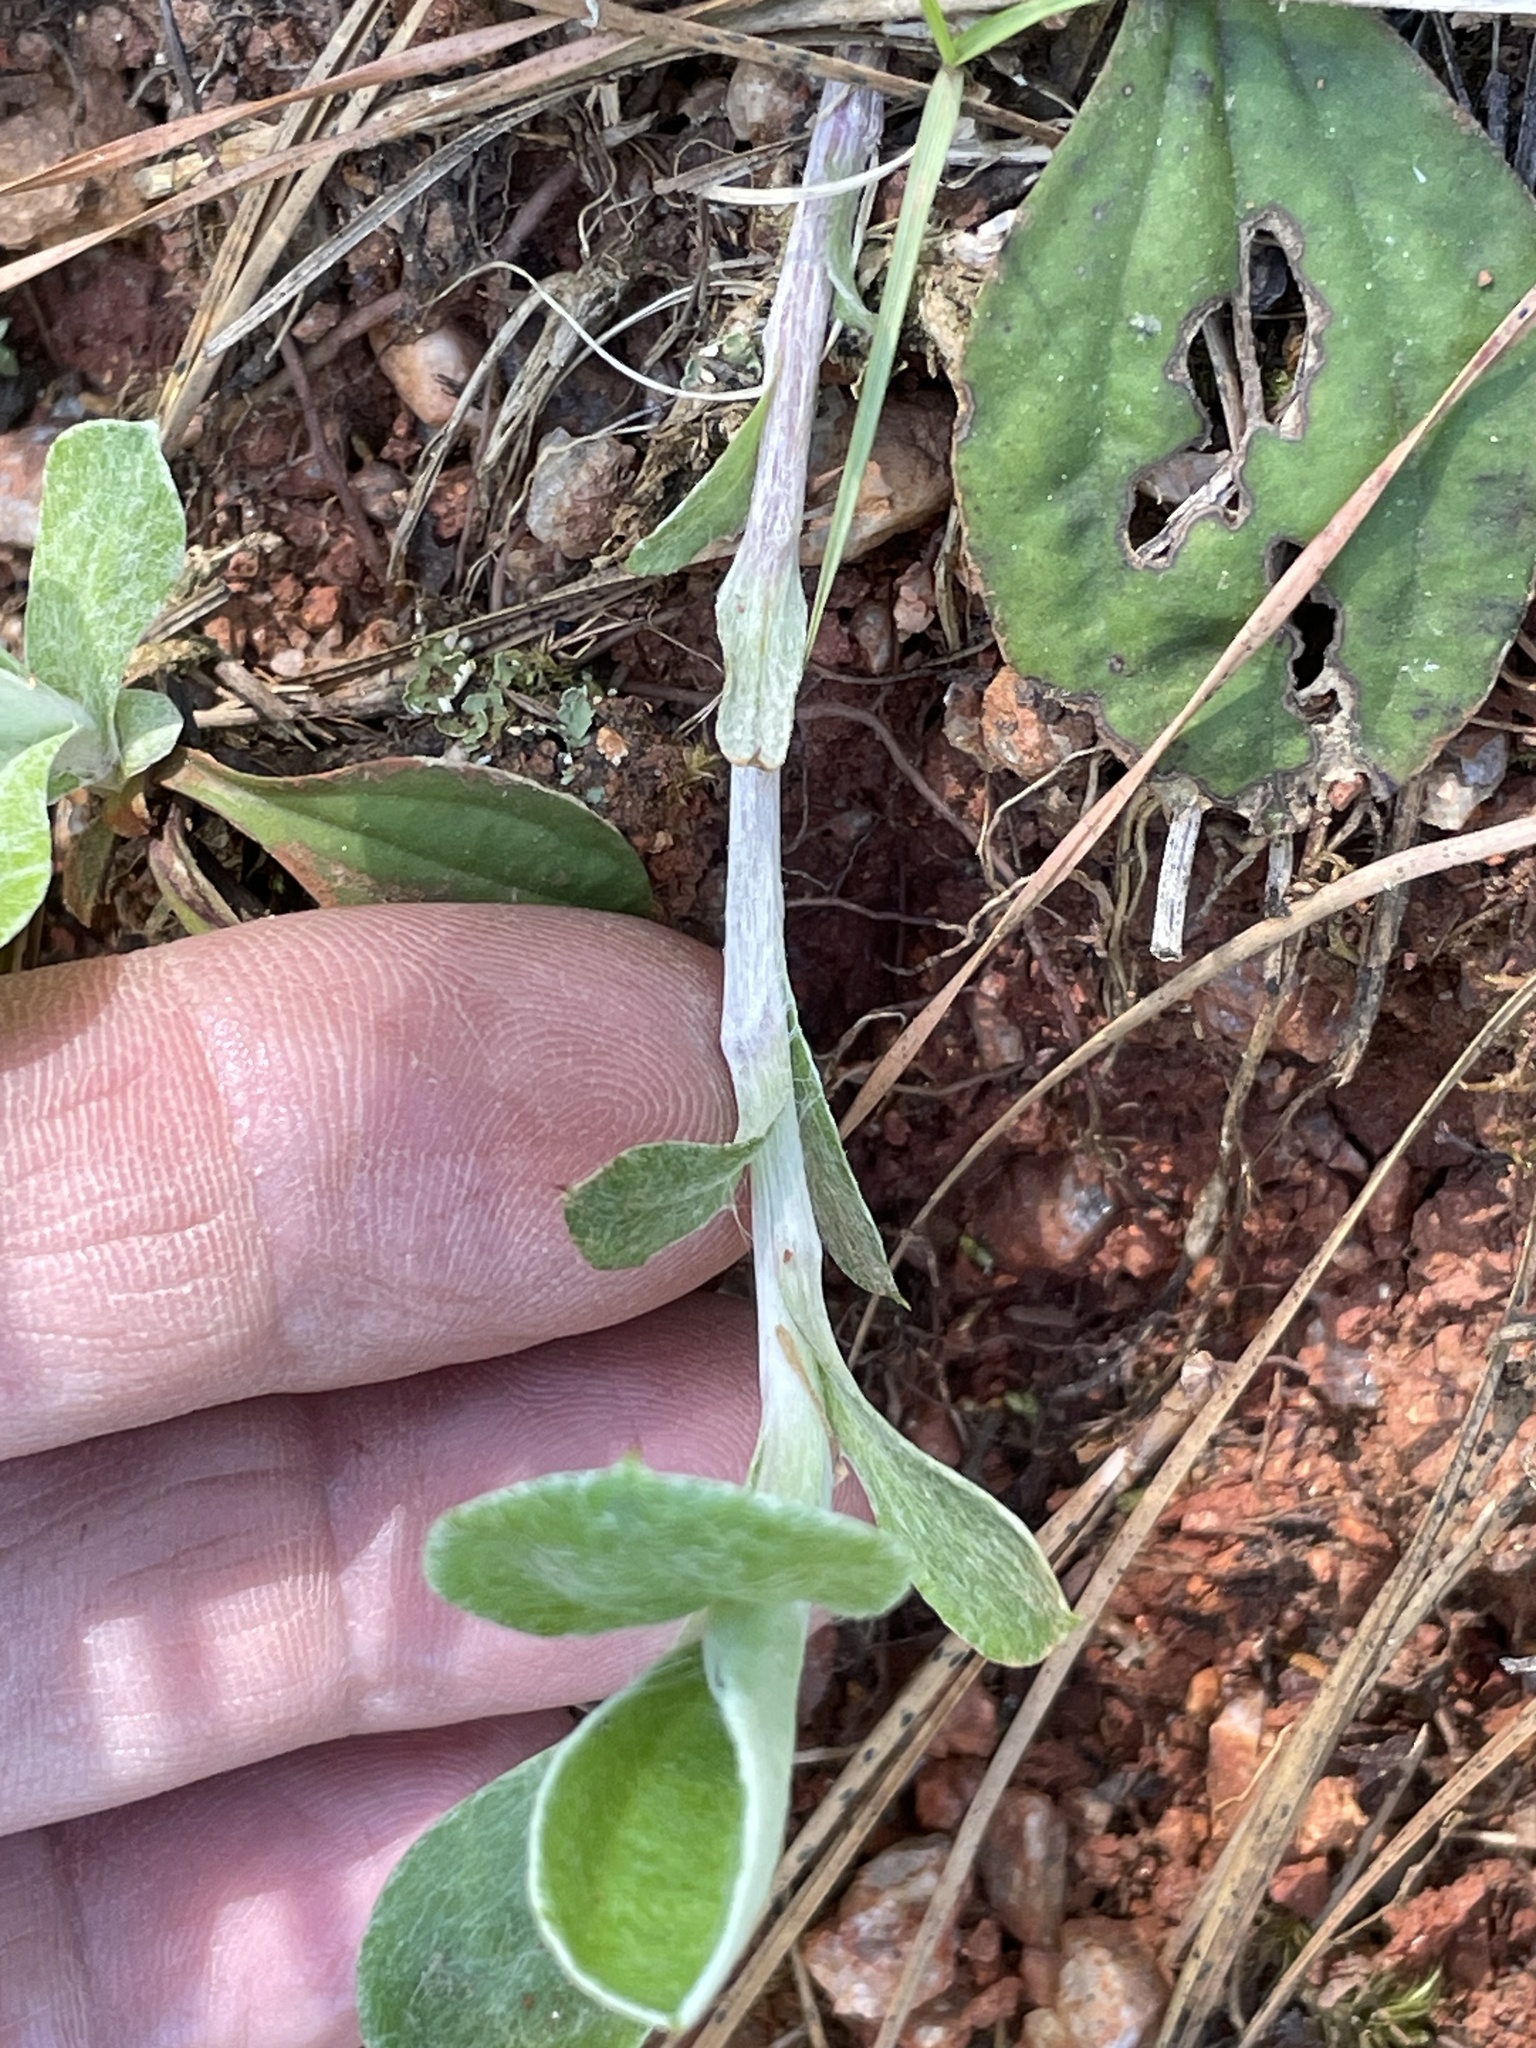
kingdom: Plantae
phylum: Tracheophyta
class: Magnoliopsida
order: Asterales
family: Asteraceae
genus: Antennaria
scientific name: Antennaria parlinii
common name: Parlin's pussytoes
